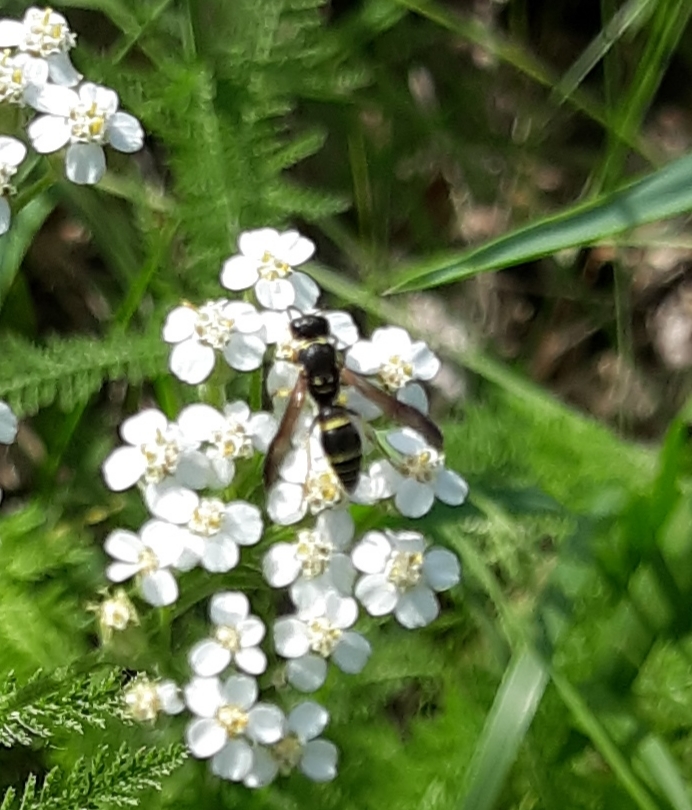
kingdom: Animalia
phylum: Arthropoda
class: Insecta
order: Hymenoptera
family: Vespidae
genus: Ancistrocerus
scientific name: Ancistrocerus adiabatus
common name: Bramble mason wasp
